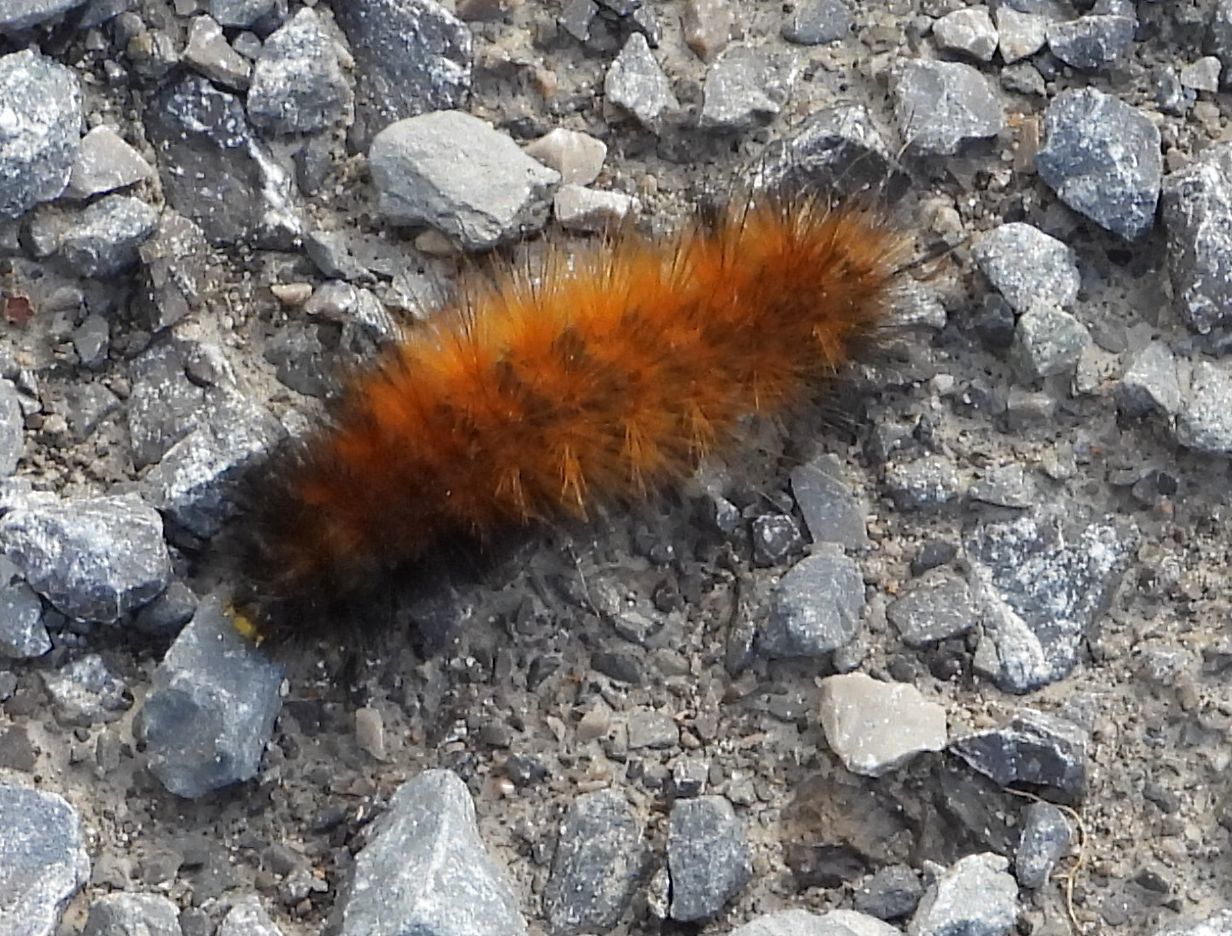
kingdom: Animalia
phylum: Arthropoda
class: Insecta
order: Lepidoptera
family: Erebidae
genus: Spilosoma
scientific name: Spilosoma virginica
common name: Virginia tiger moth
